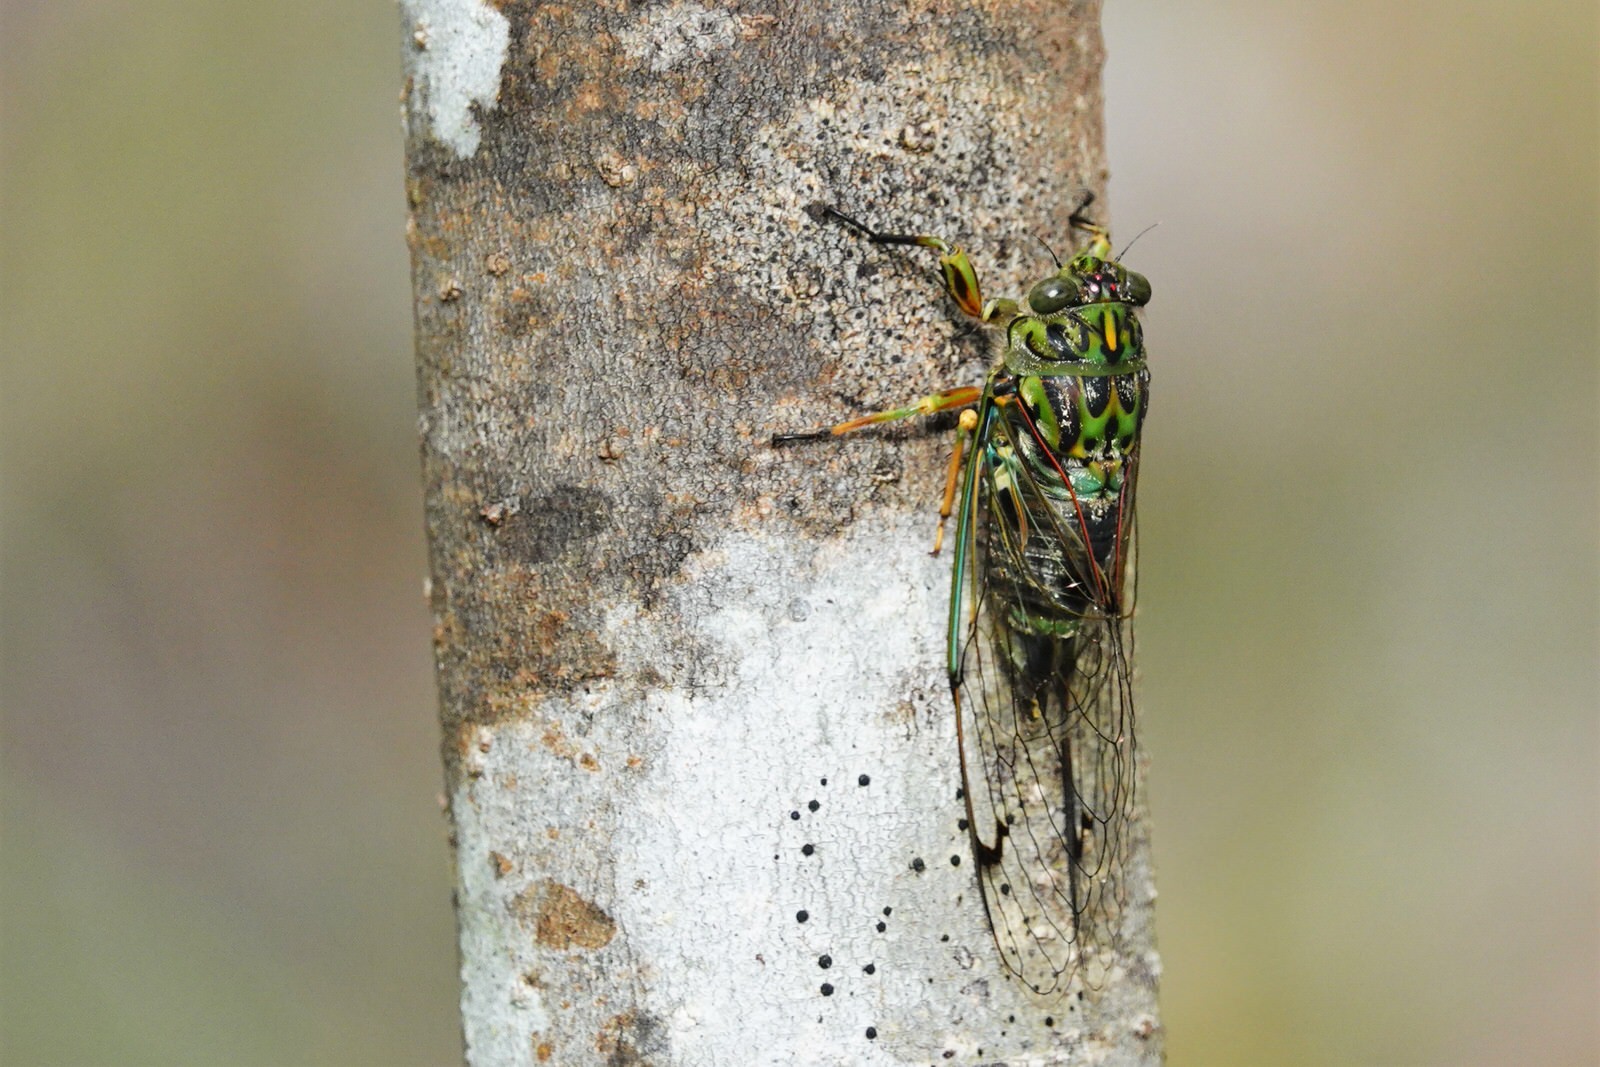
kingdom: Animalia
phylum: Arthropoda
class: Insecta
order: Hemiptera
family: Cicadidae
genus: Amphipsalta
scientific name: Amphipsalta zelandica
